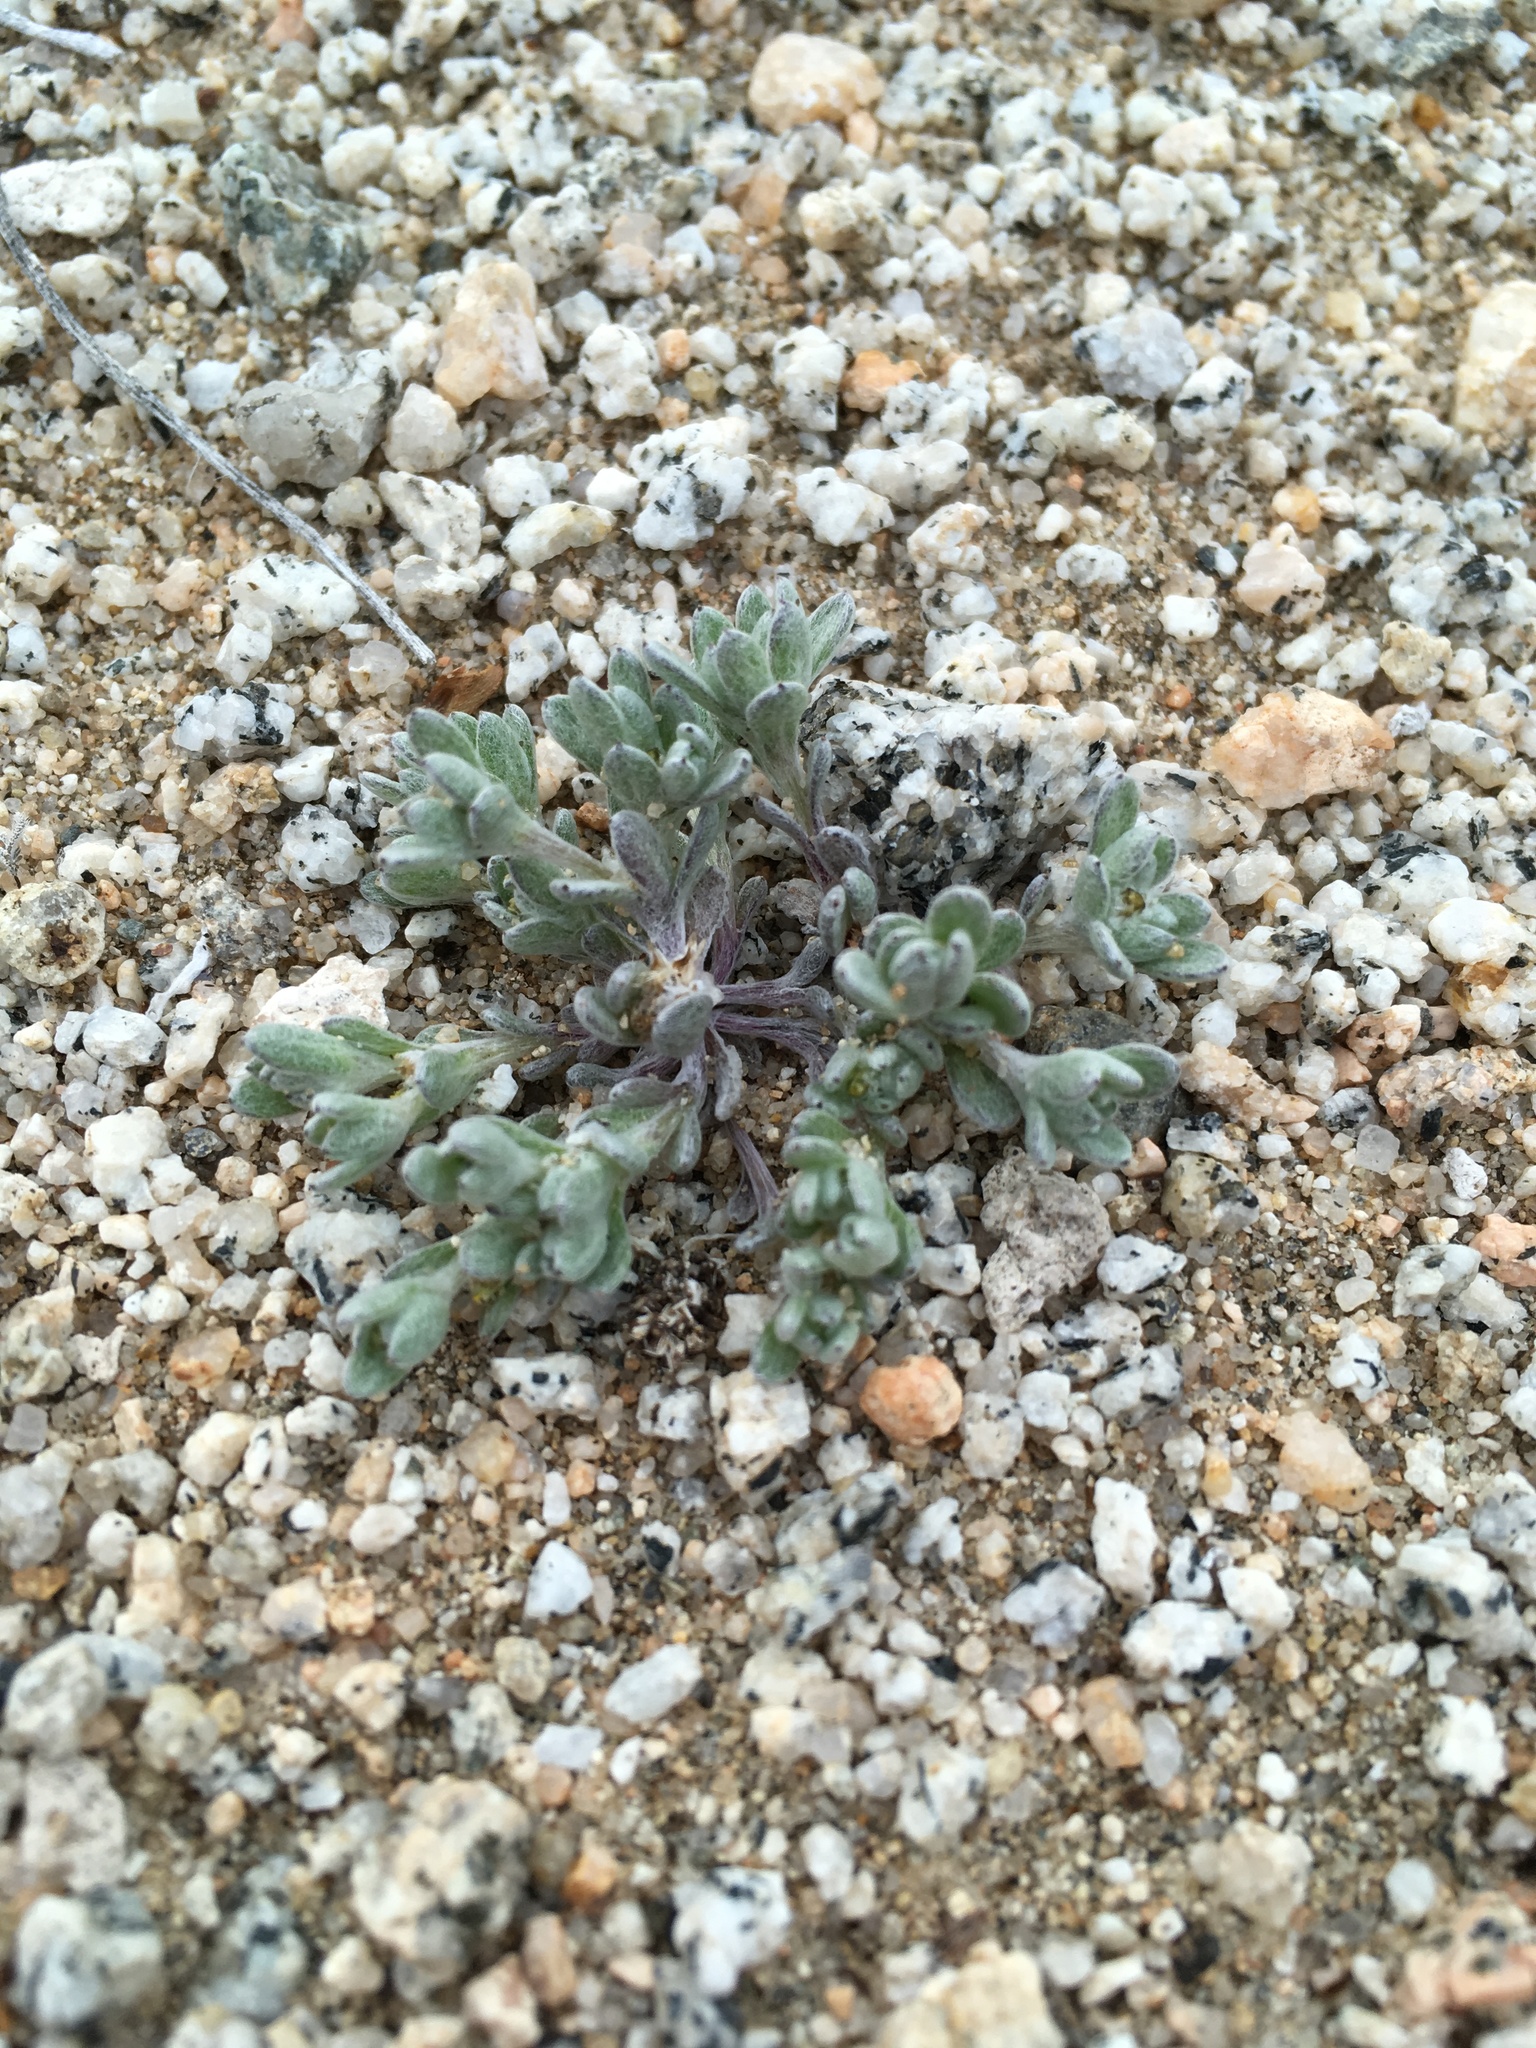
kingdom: Plantae
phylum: Tracheophyta
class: Magnoliopsida
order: Asterales
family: Asteraceae
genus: Logfia
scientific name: Logfia depressa
